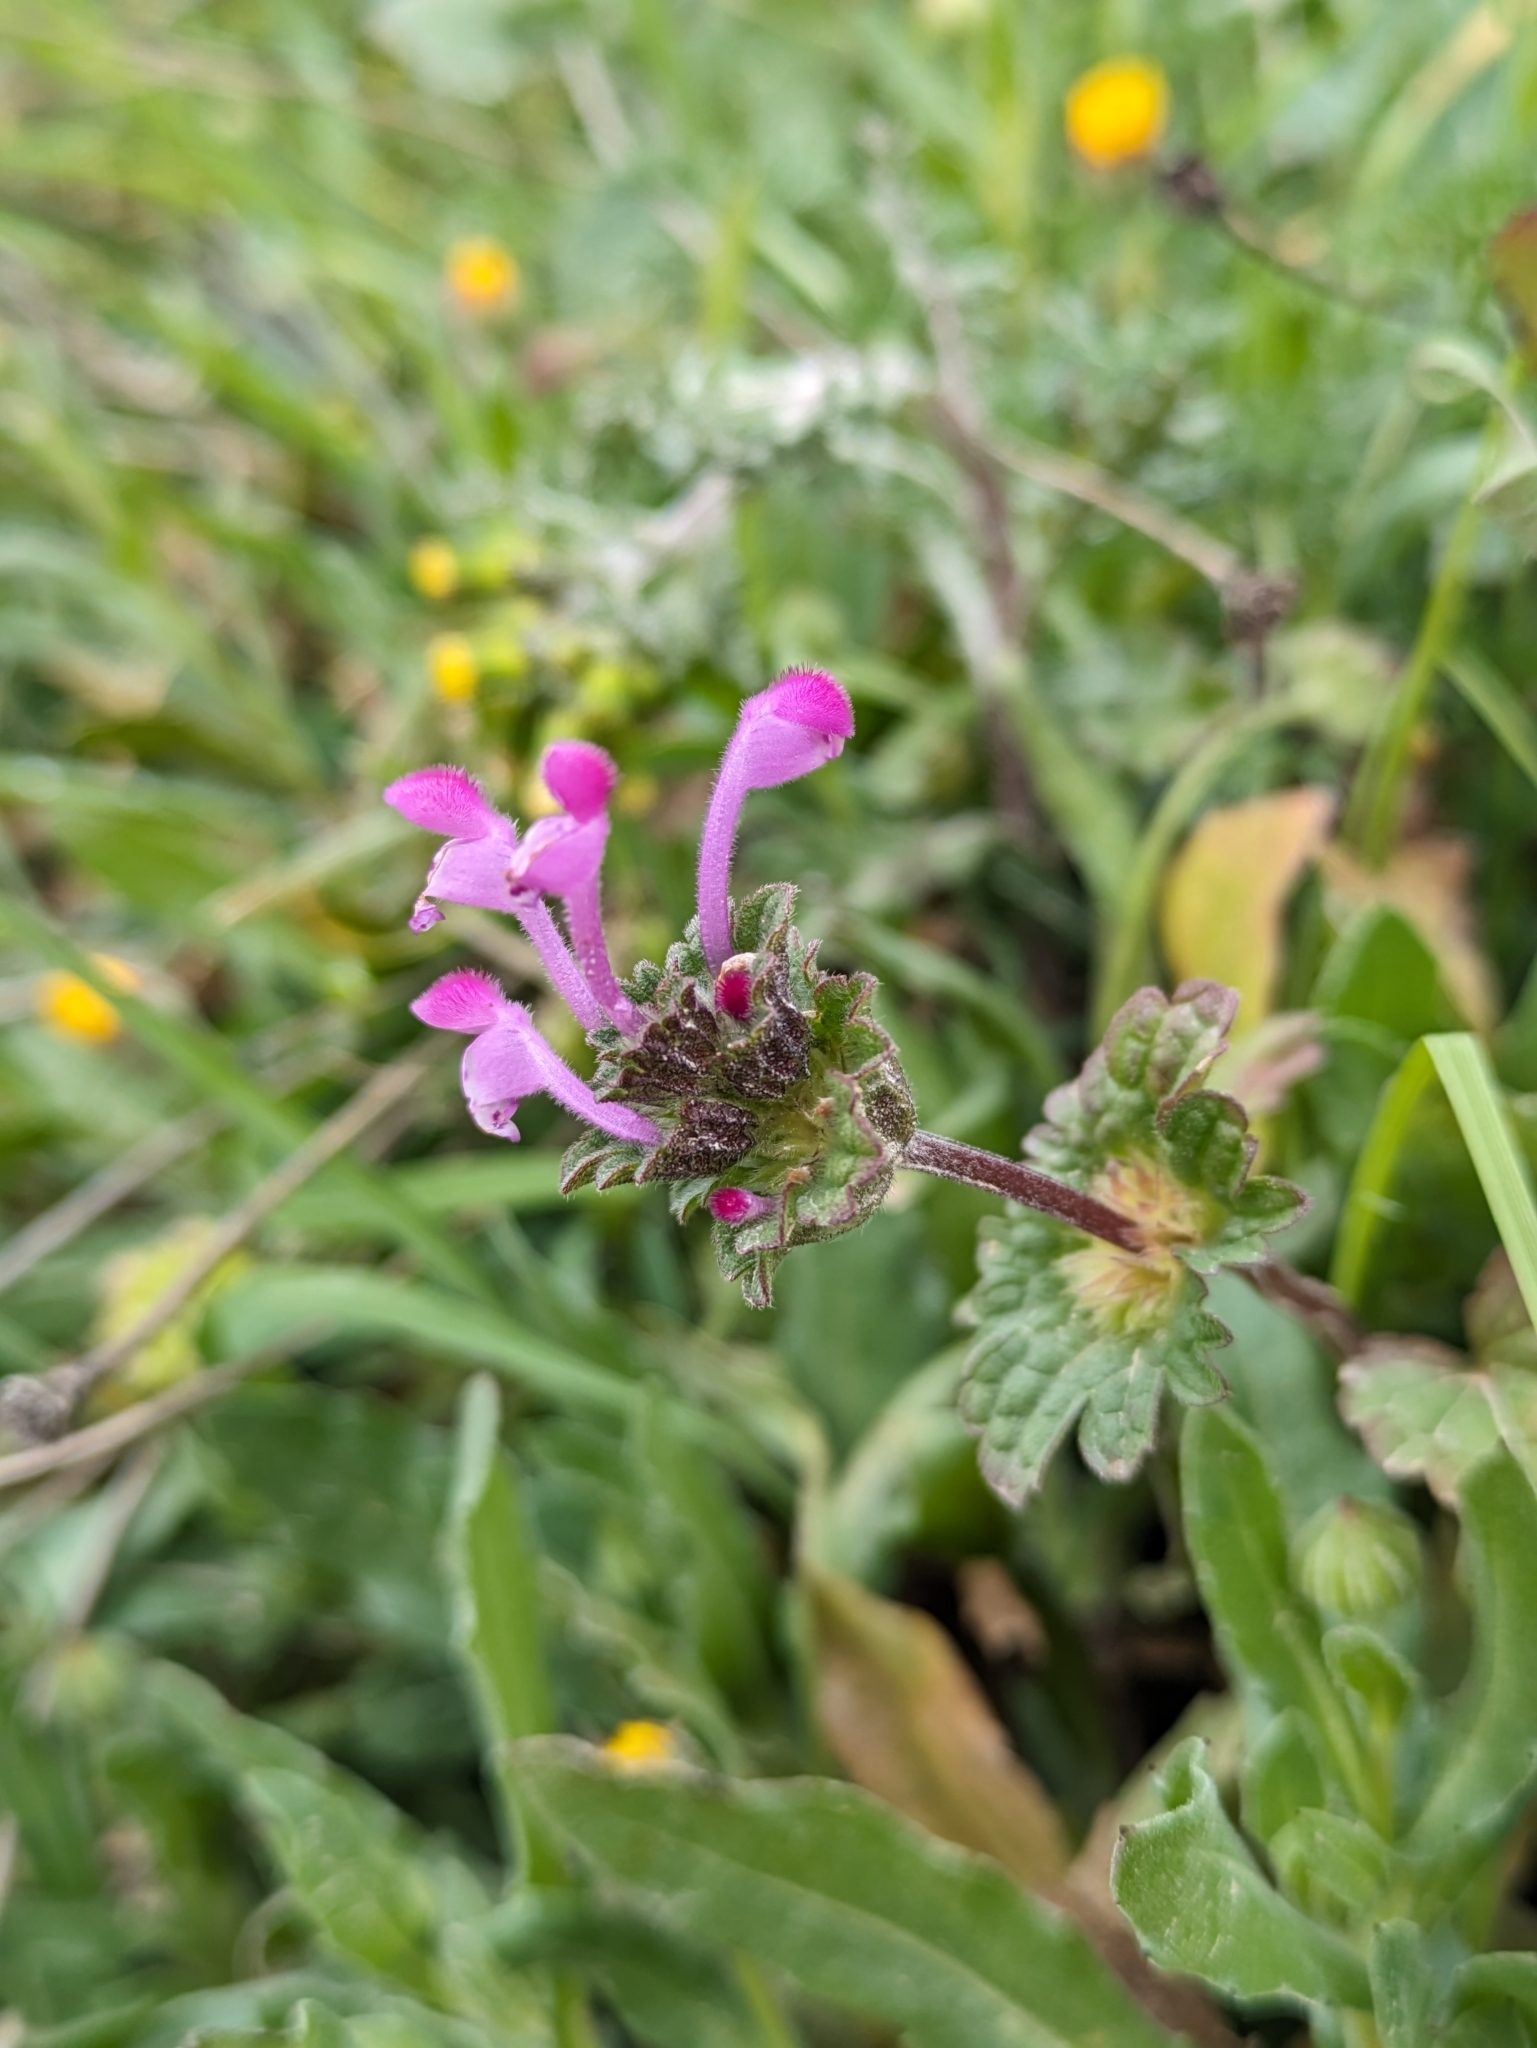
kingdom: Plantae
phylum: Tracheophyta
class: Magnoliopsida
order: Lamiales
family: Lamiaceae
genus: Lamium
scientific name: Lamium amplexicaule
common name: Henbit dead-nettle
